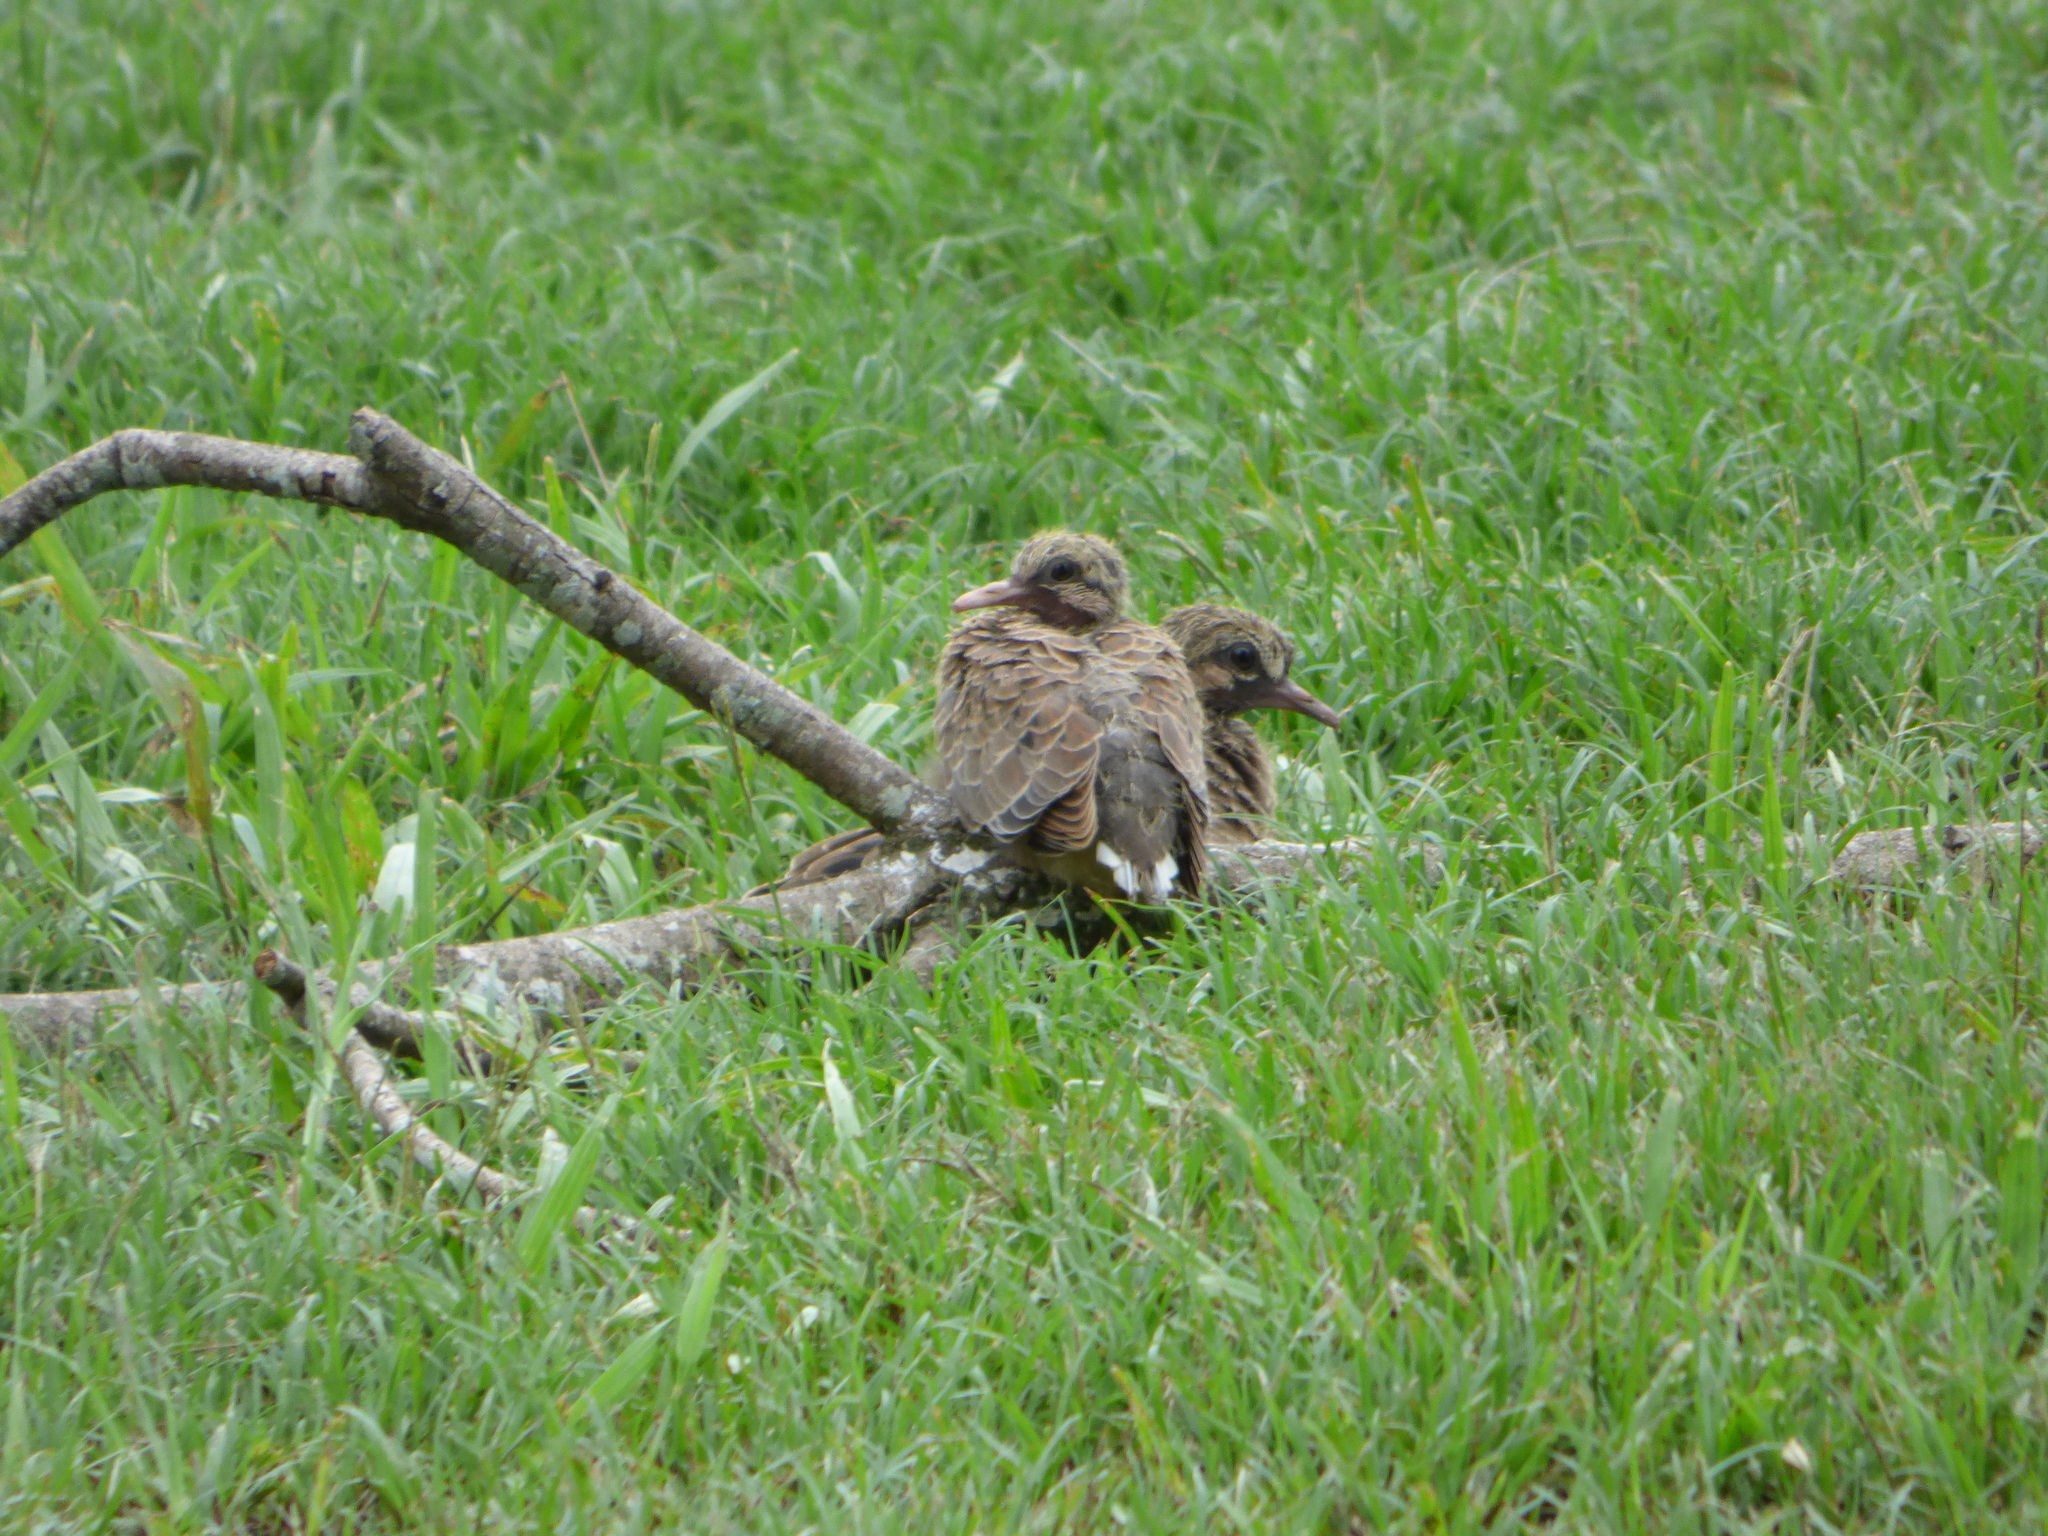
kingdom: Animalia
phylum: Chordata
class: Aves
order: Columbiformes
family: Columbidae
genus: Zenaida
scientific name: Zenaida auriculata
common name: Eared dove
